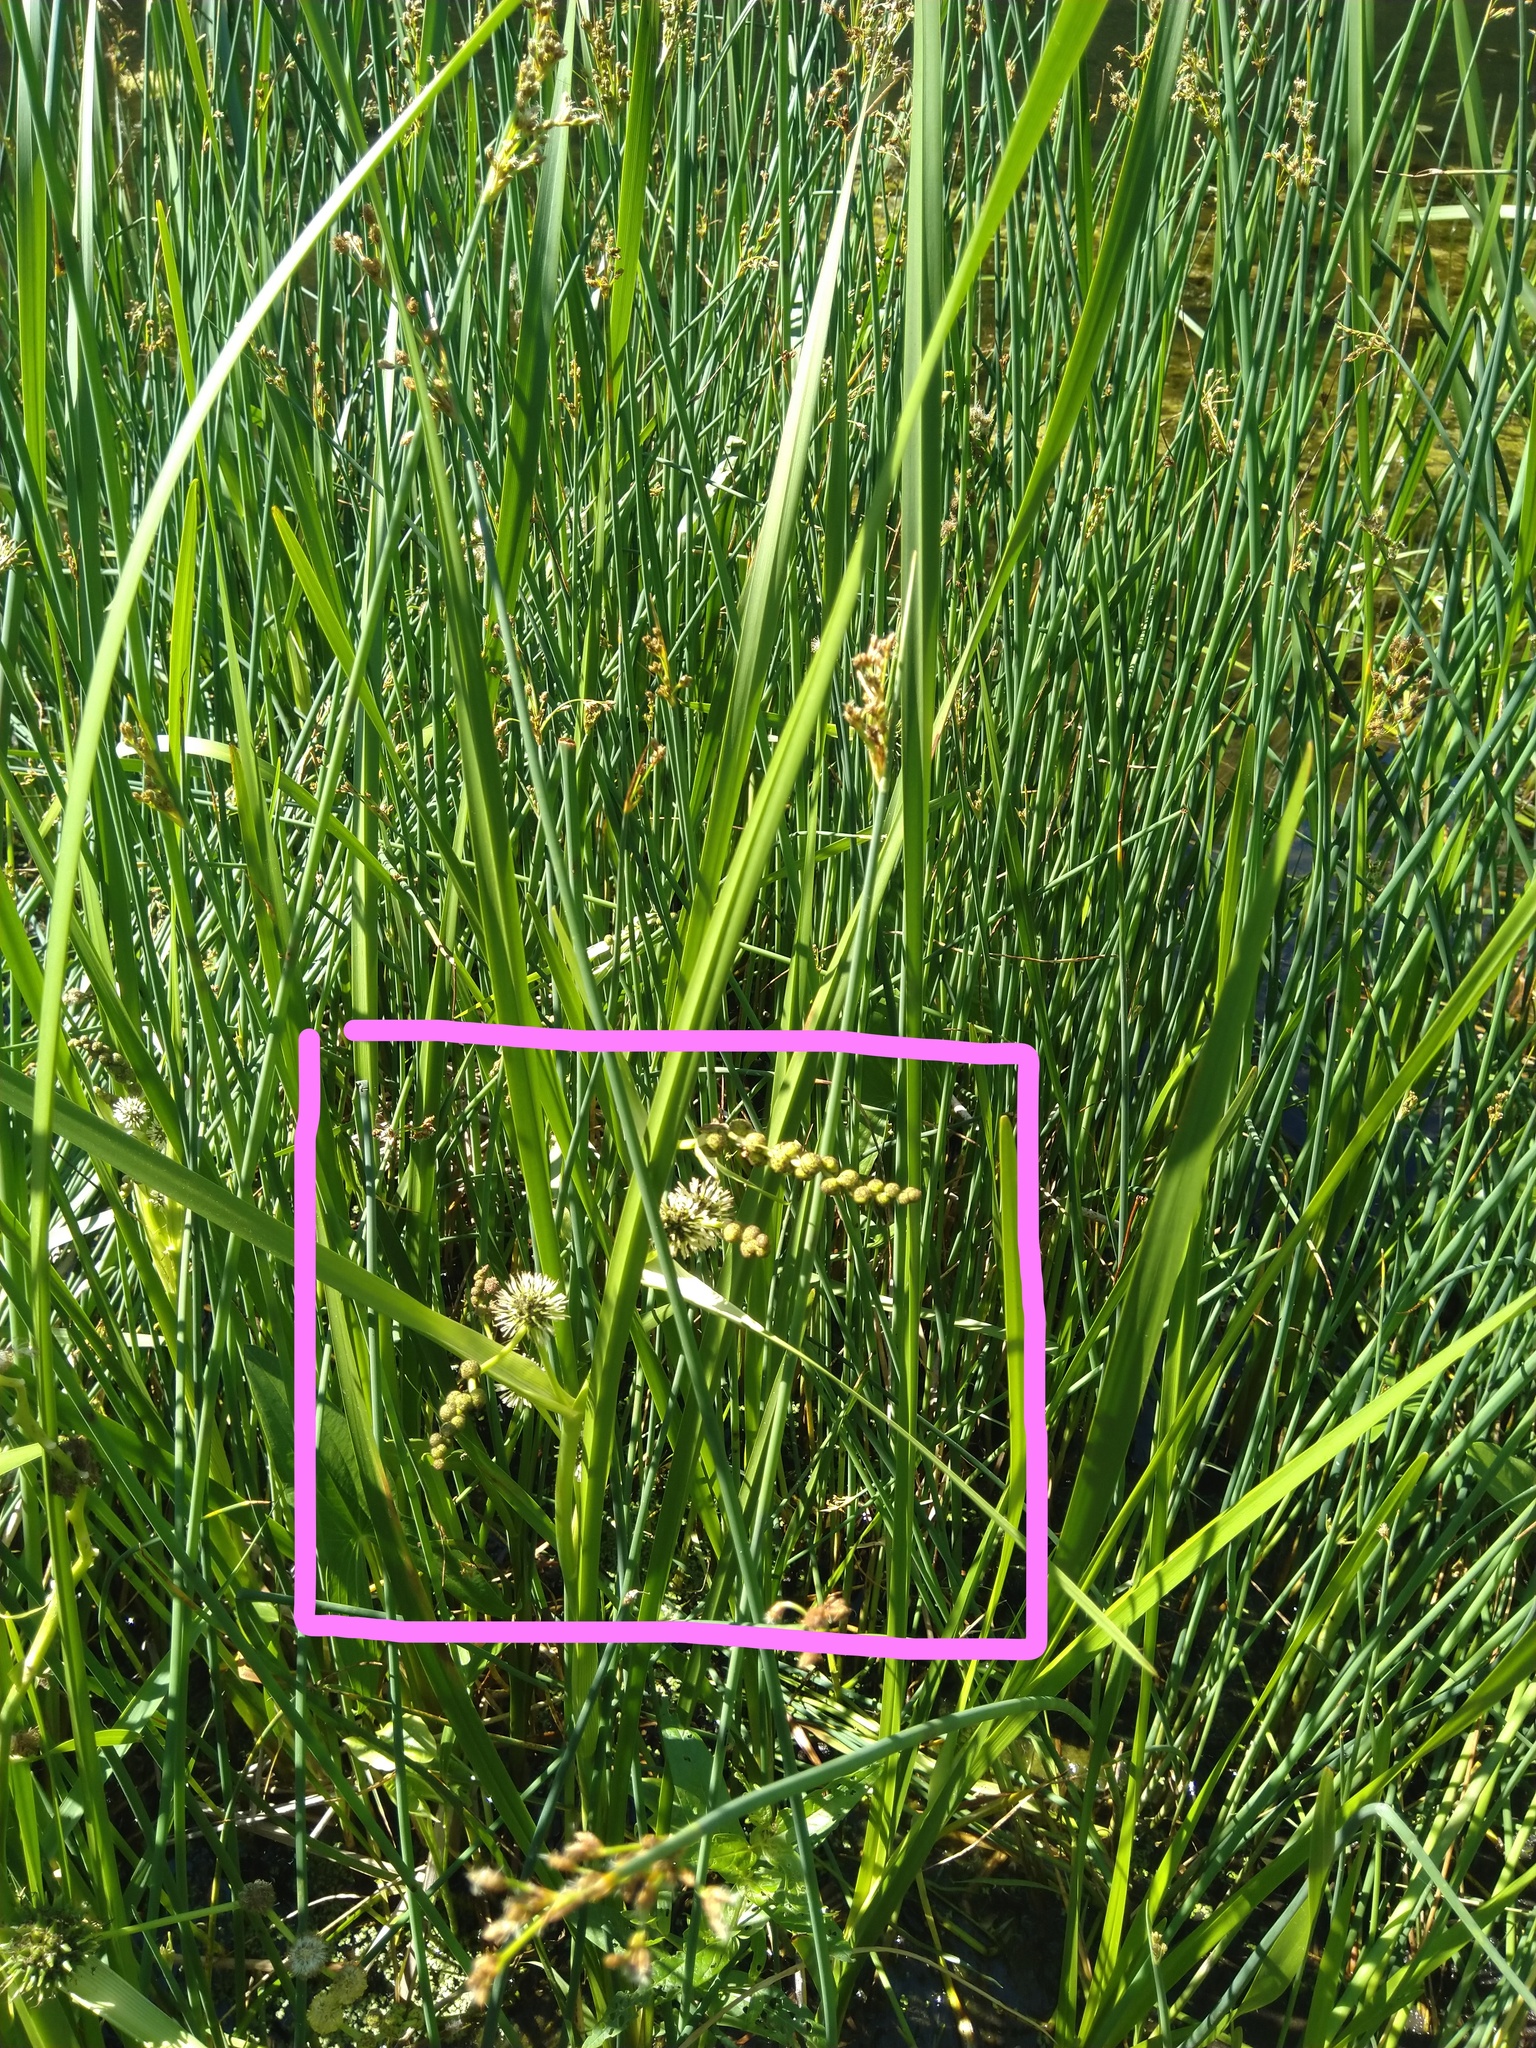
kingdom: Plantae
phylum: Tracheophyta
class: Liliopsida
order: Poales
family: Typhaceae
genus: Sparganium
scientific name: Sparganium eurycarpum
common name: Broad-fruited burreed
